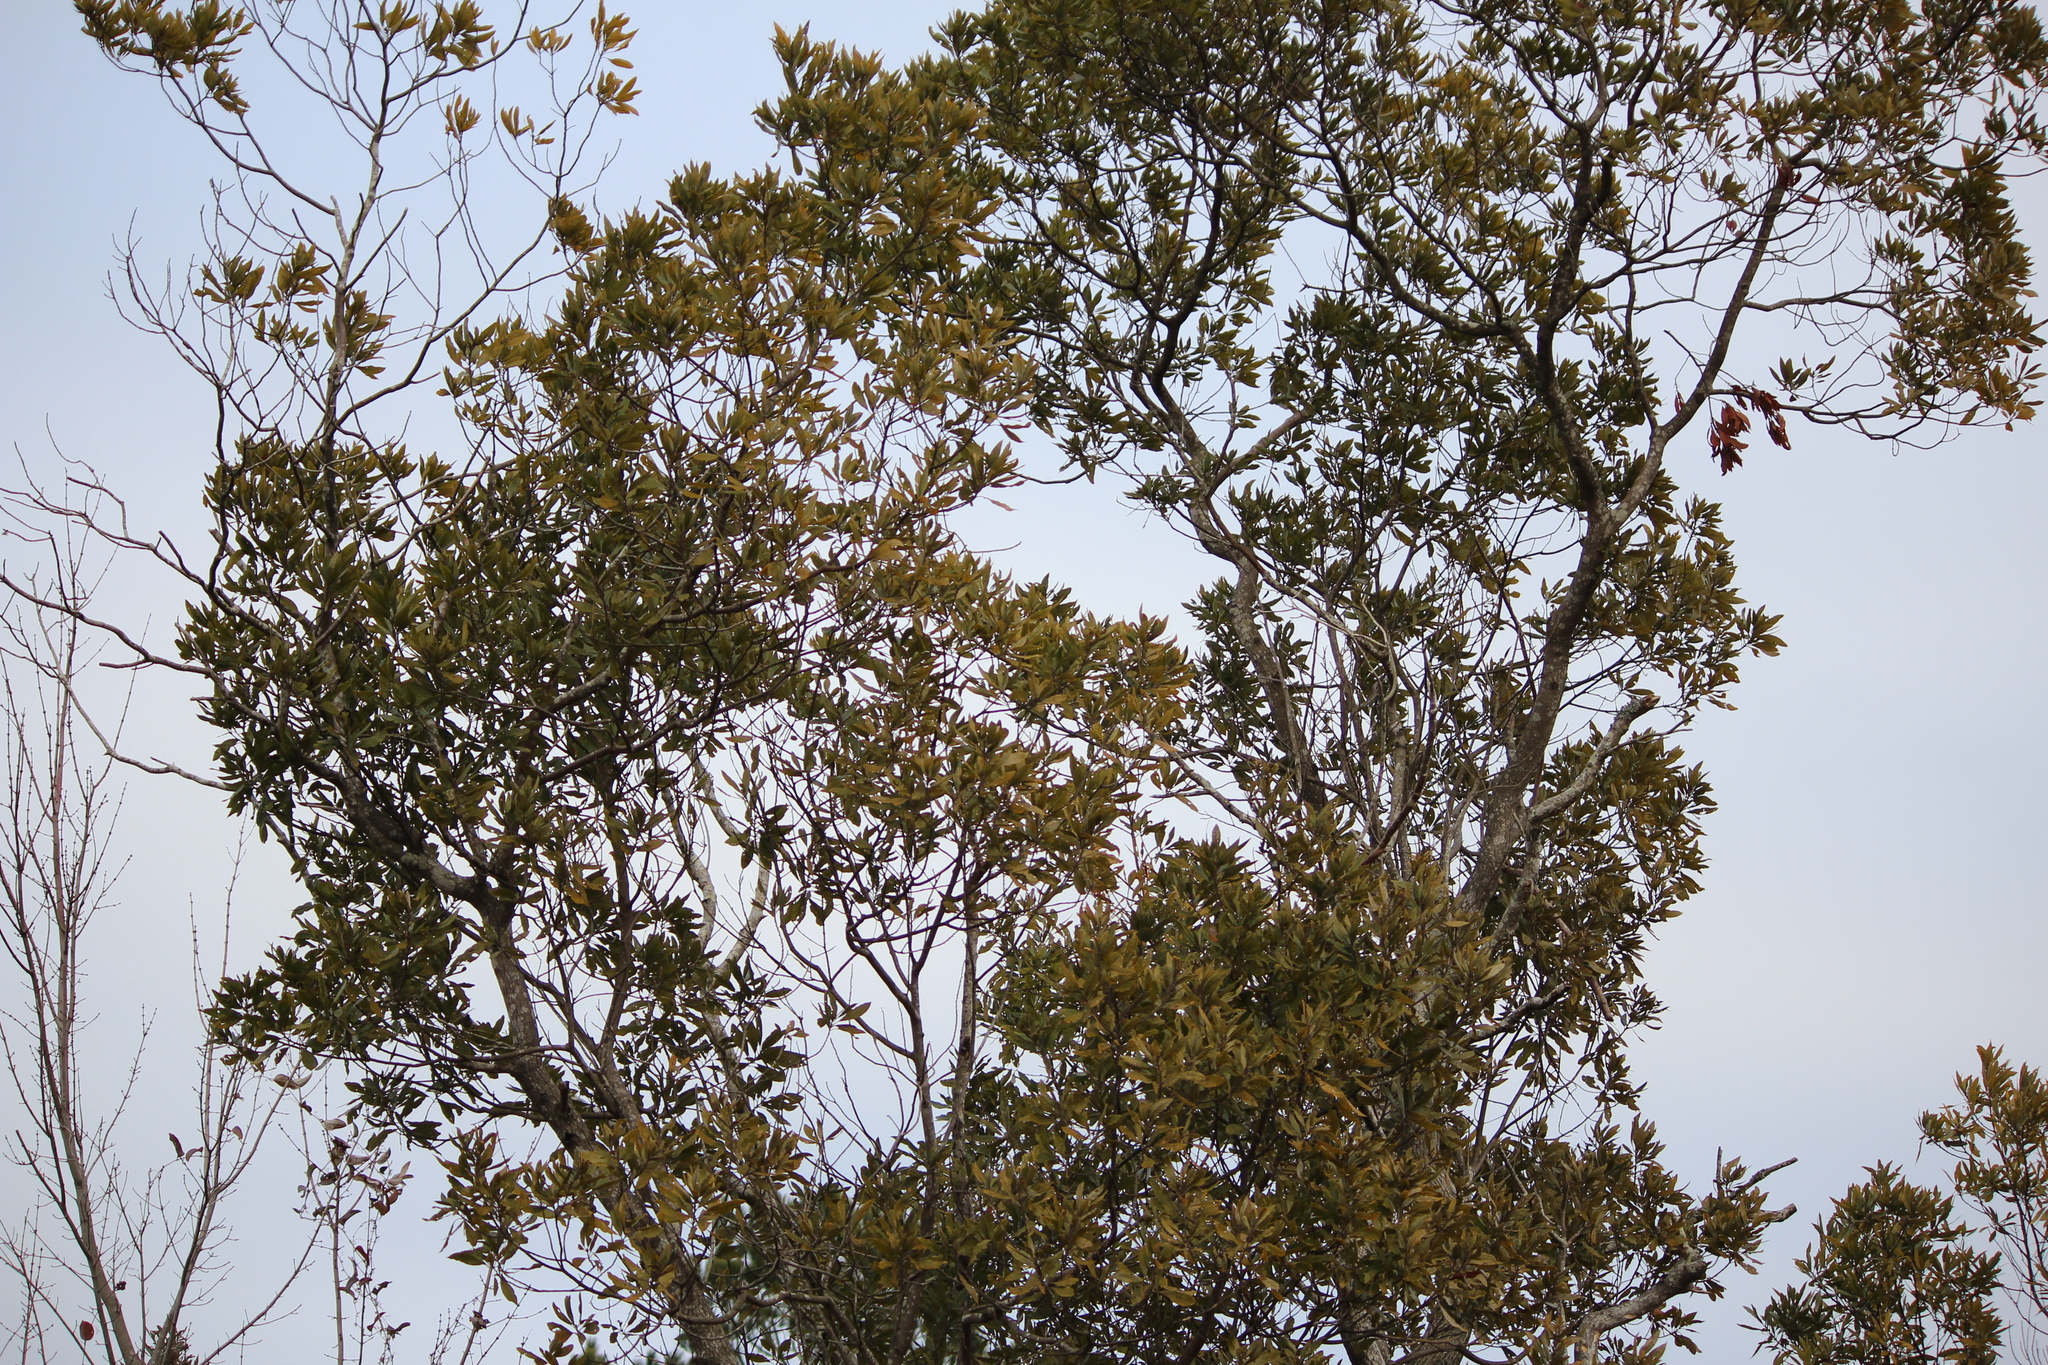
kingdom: Plantae
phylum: Tracheophyta
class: Magnoliopsida
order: Ericales
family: Theaceae
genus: Gordonia
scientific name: Gordonia lasianthus
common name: Loblolly bay
